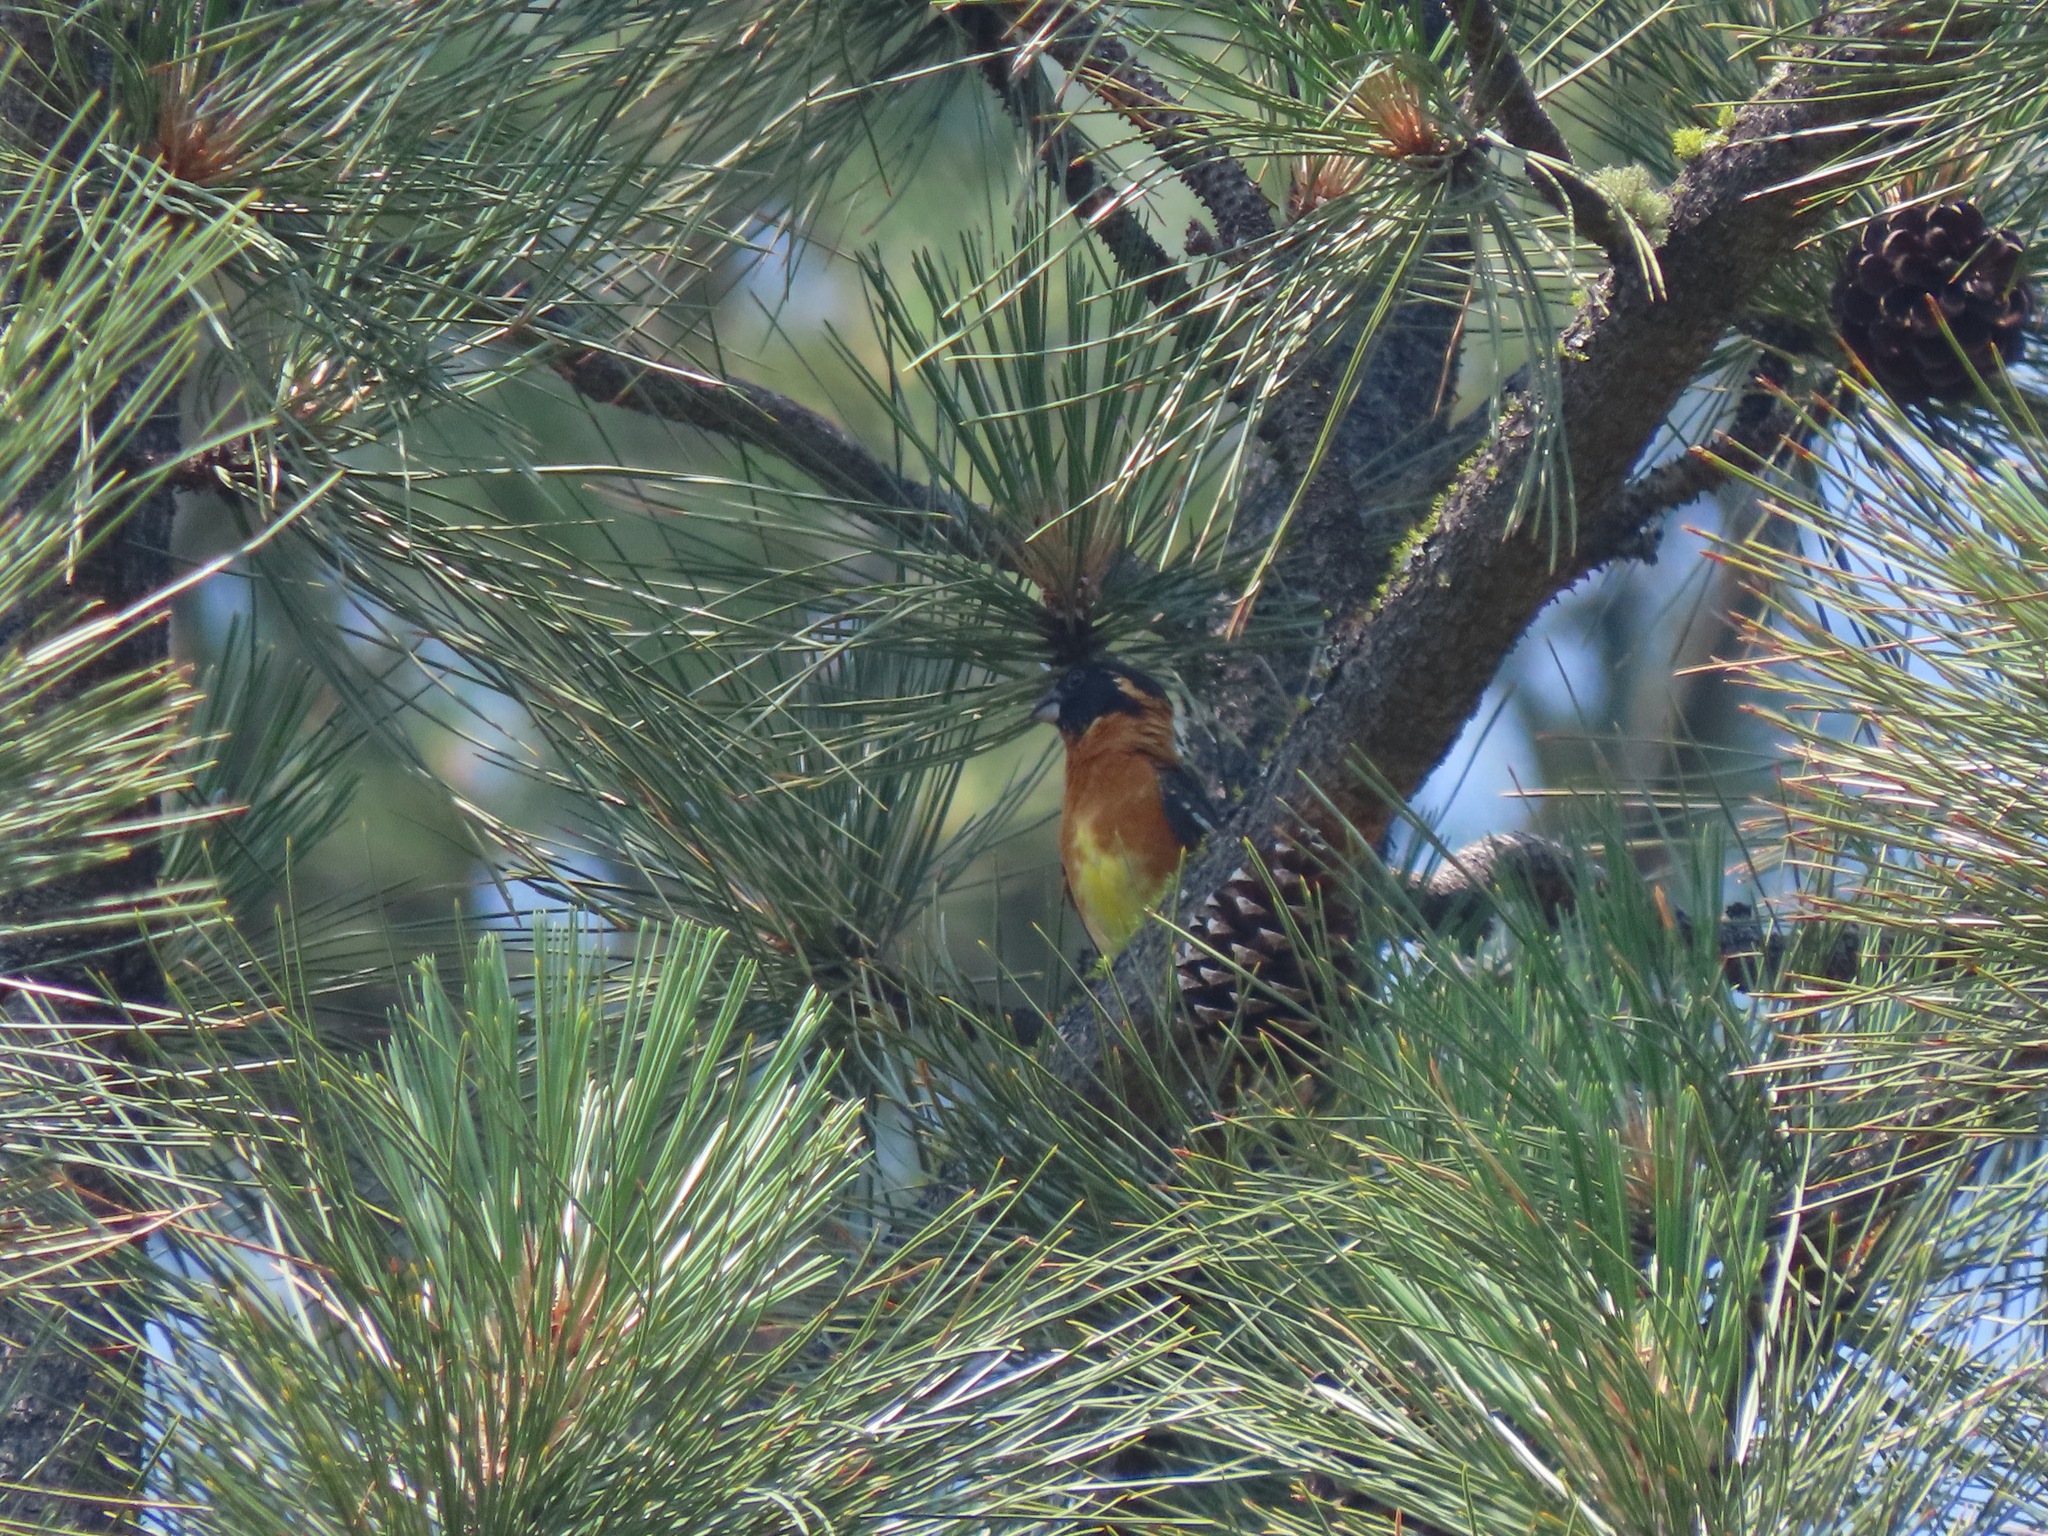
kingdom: Animalia
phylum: Chordata
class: Aves
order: Passeriformes
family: Cardinalidae
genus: Pheucticus
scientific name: Pheucticus melanocephalus
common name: Black-headed grosbeak
